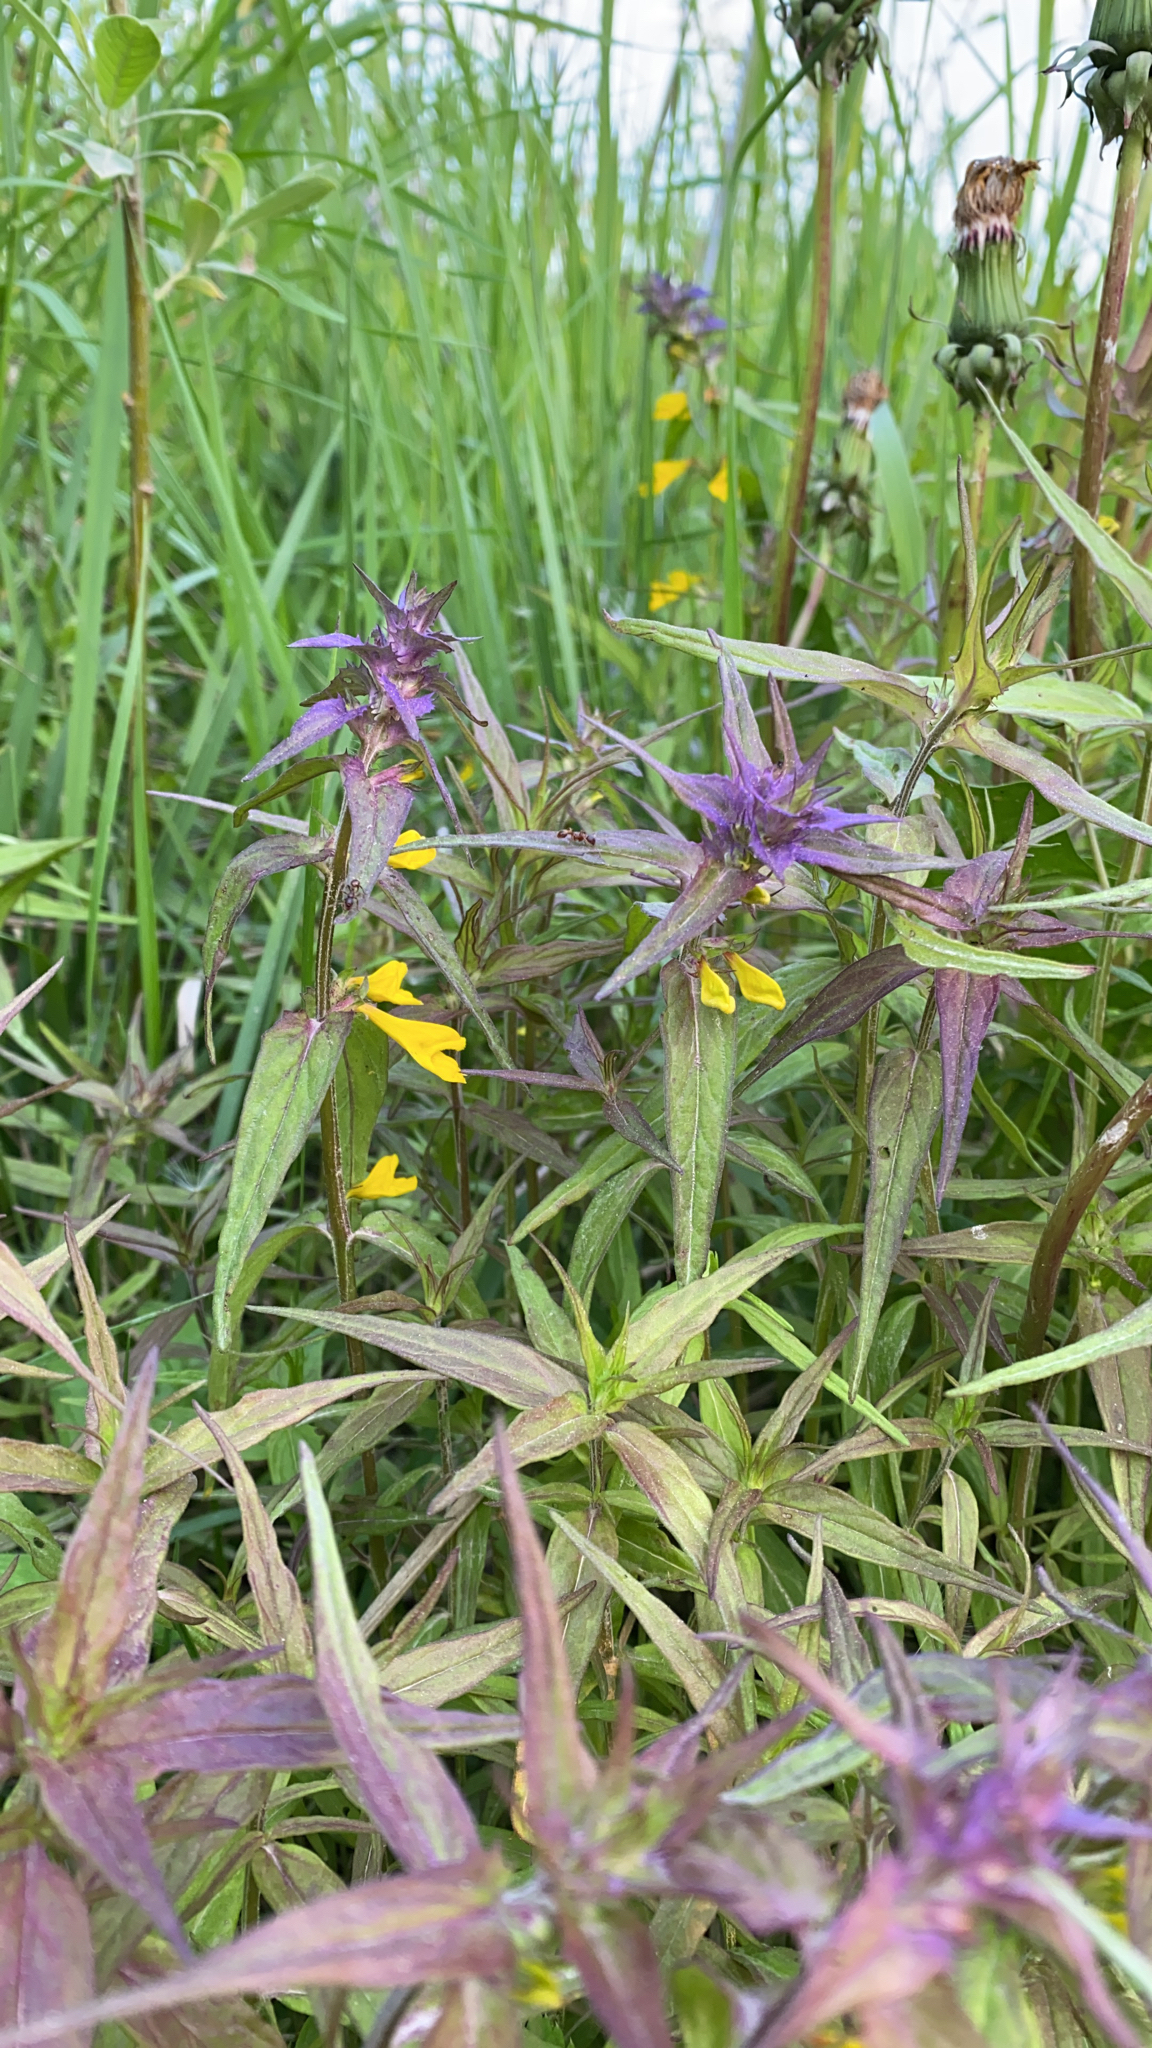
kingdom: Plantae
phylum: Tracheophyta
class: Magnoliopsida
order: Lamiales
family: Orobanchaceae
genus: Melampyrum
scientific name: Melampyrum nemorosum
